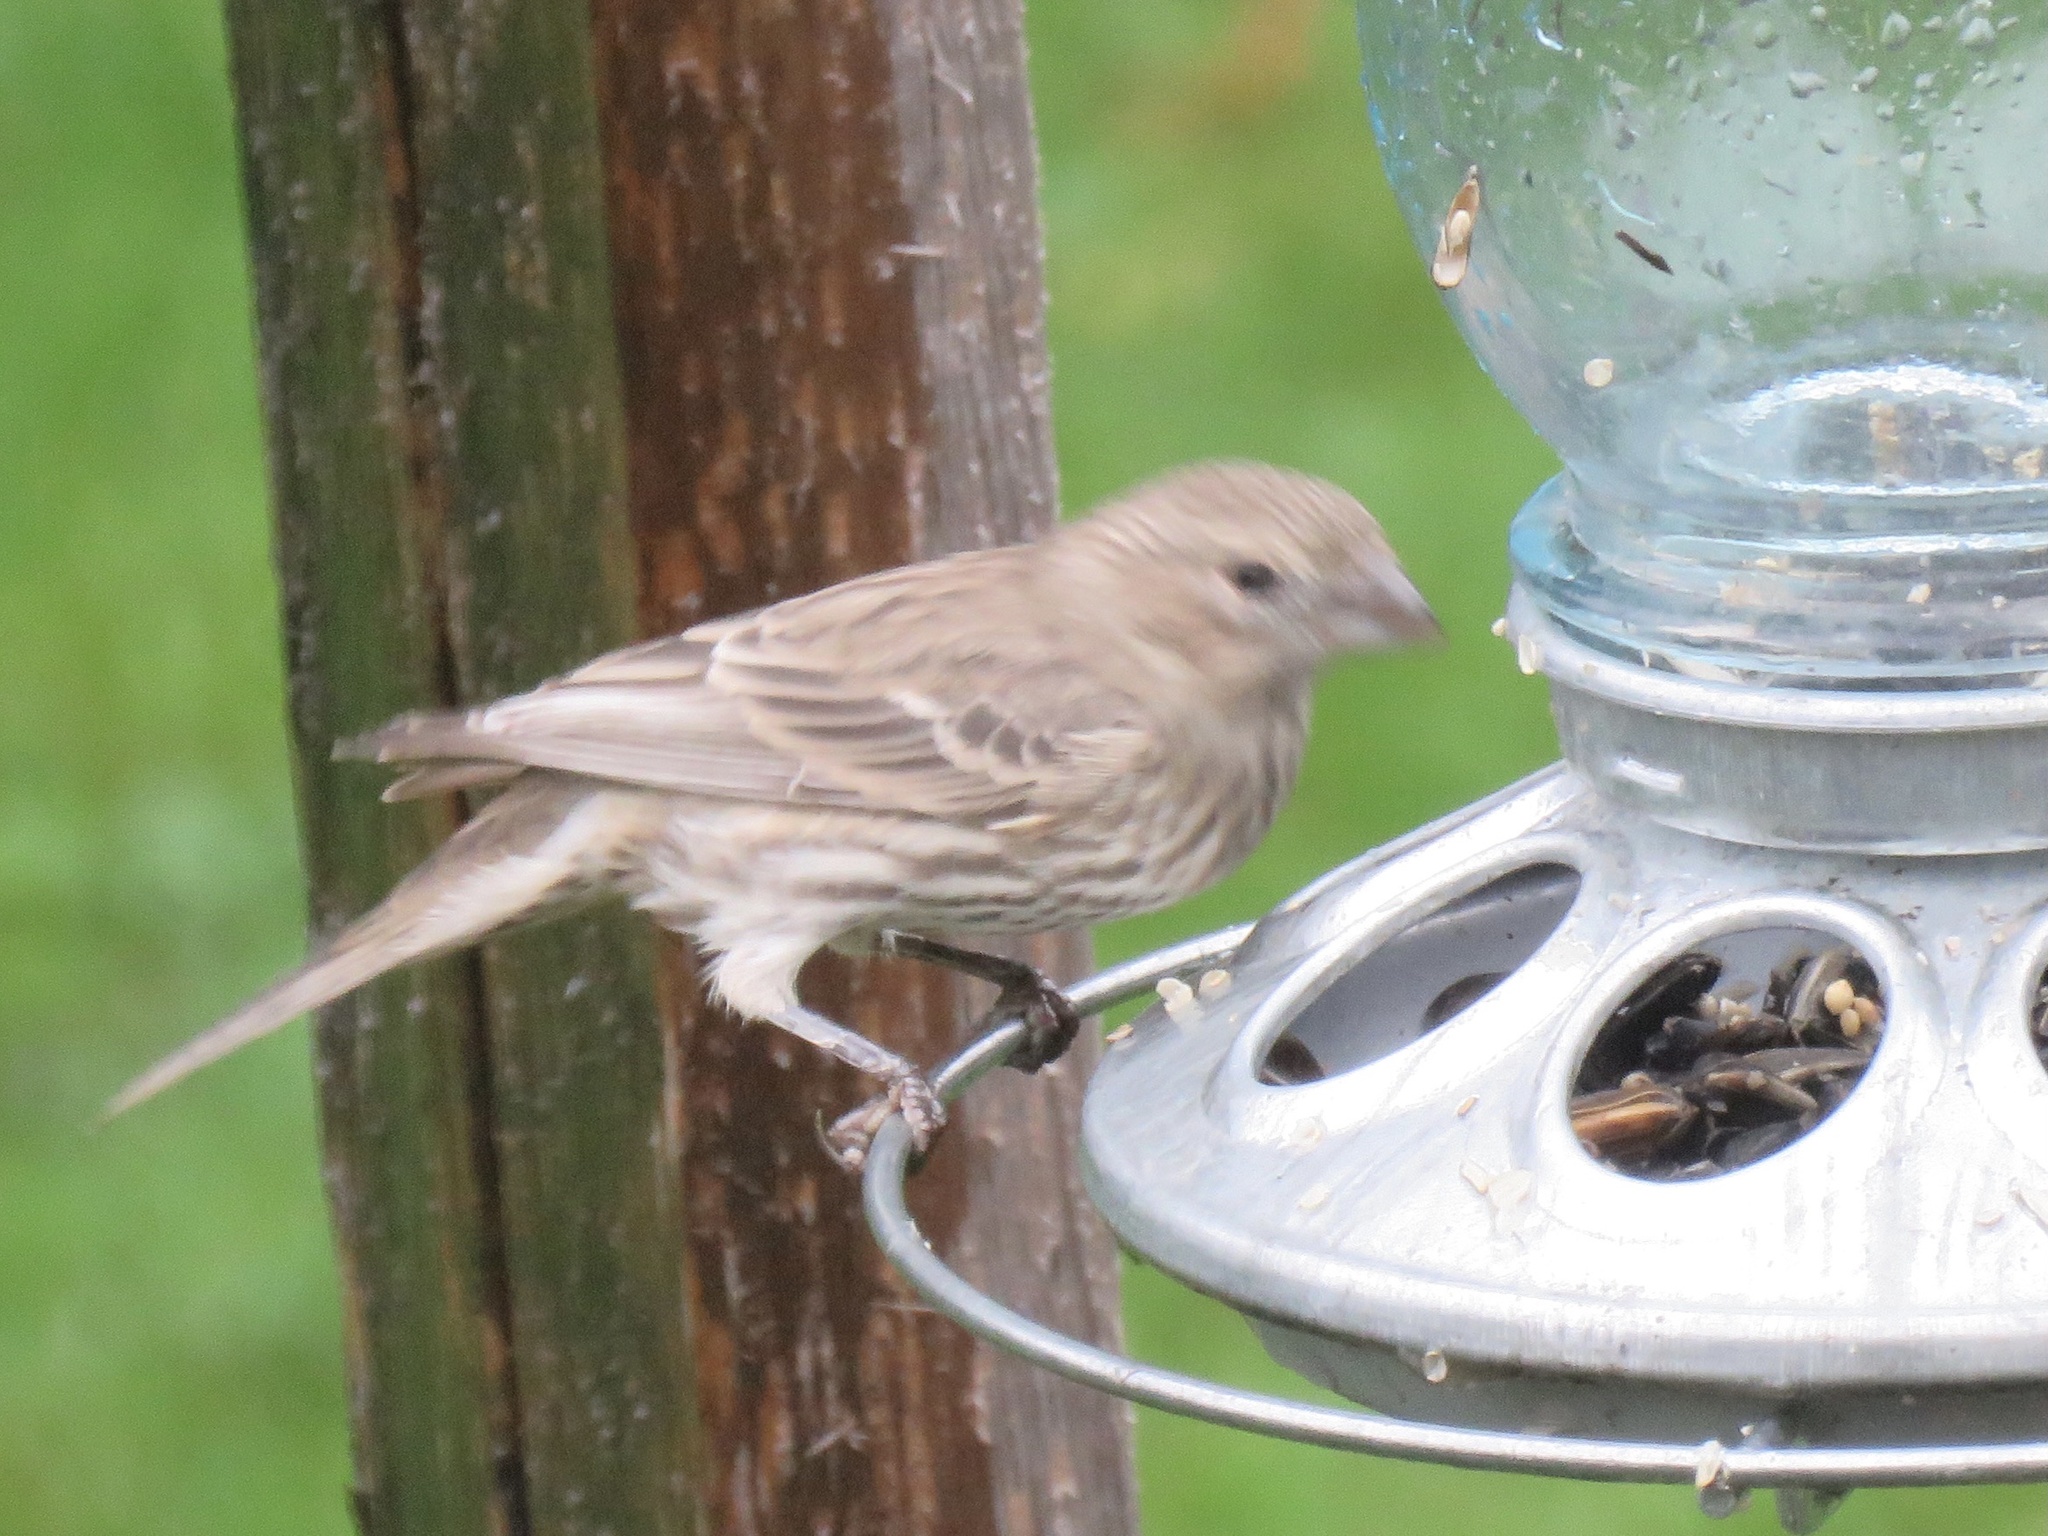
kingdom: Animalia
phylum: Chordata
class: Aves
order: Passeriformes
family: Fringillidae
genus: Haemorhous
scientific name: Haemorhous mexicanus
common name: House finch
